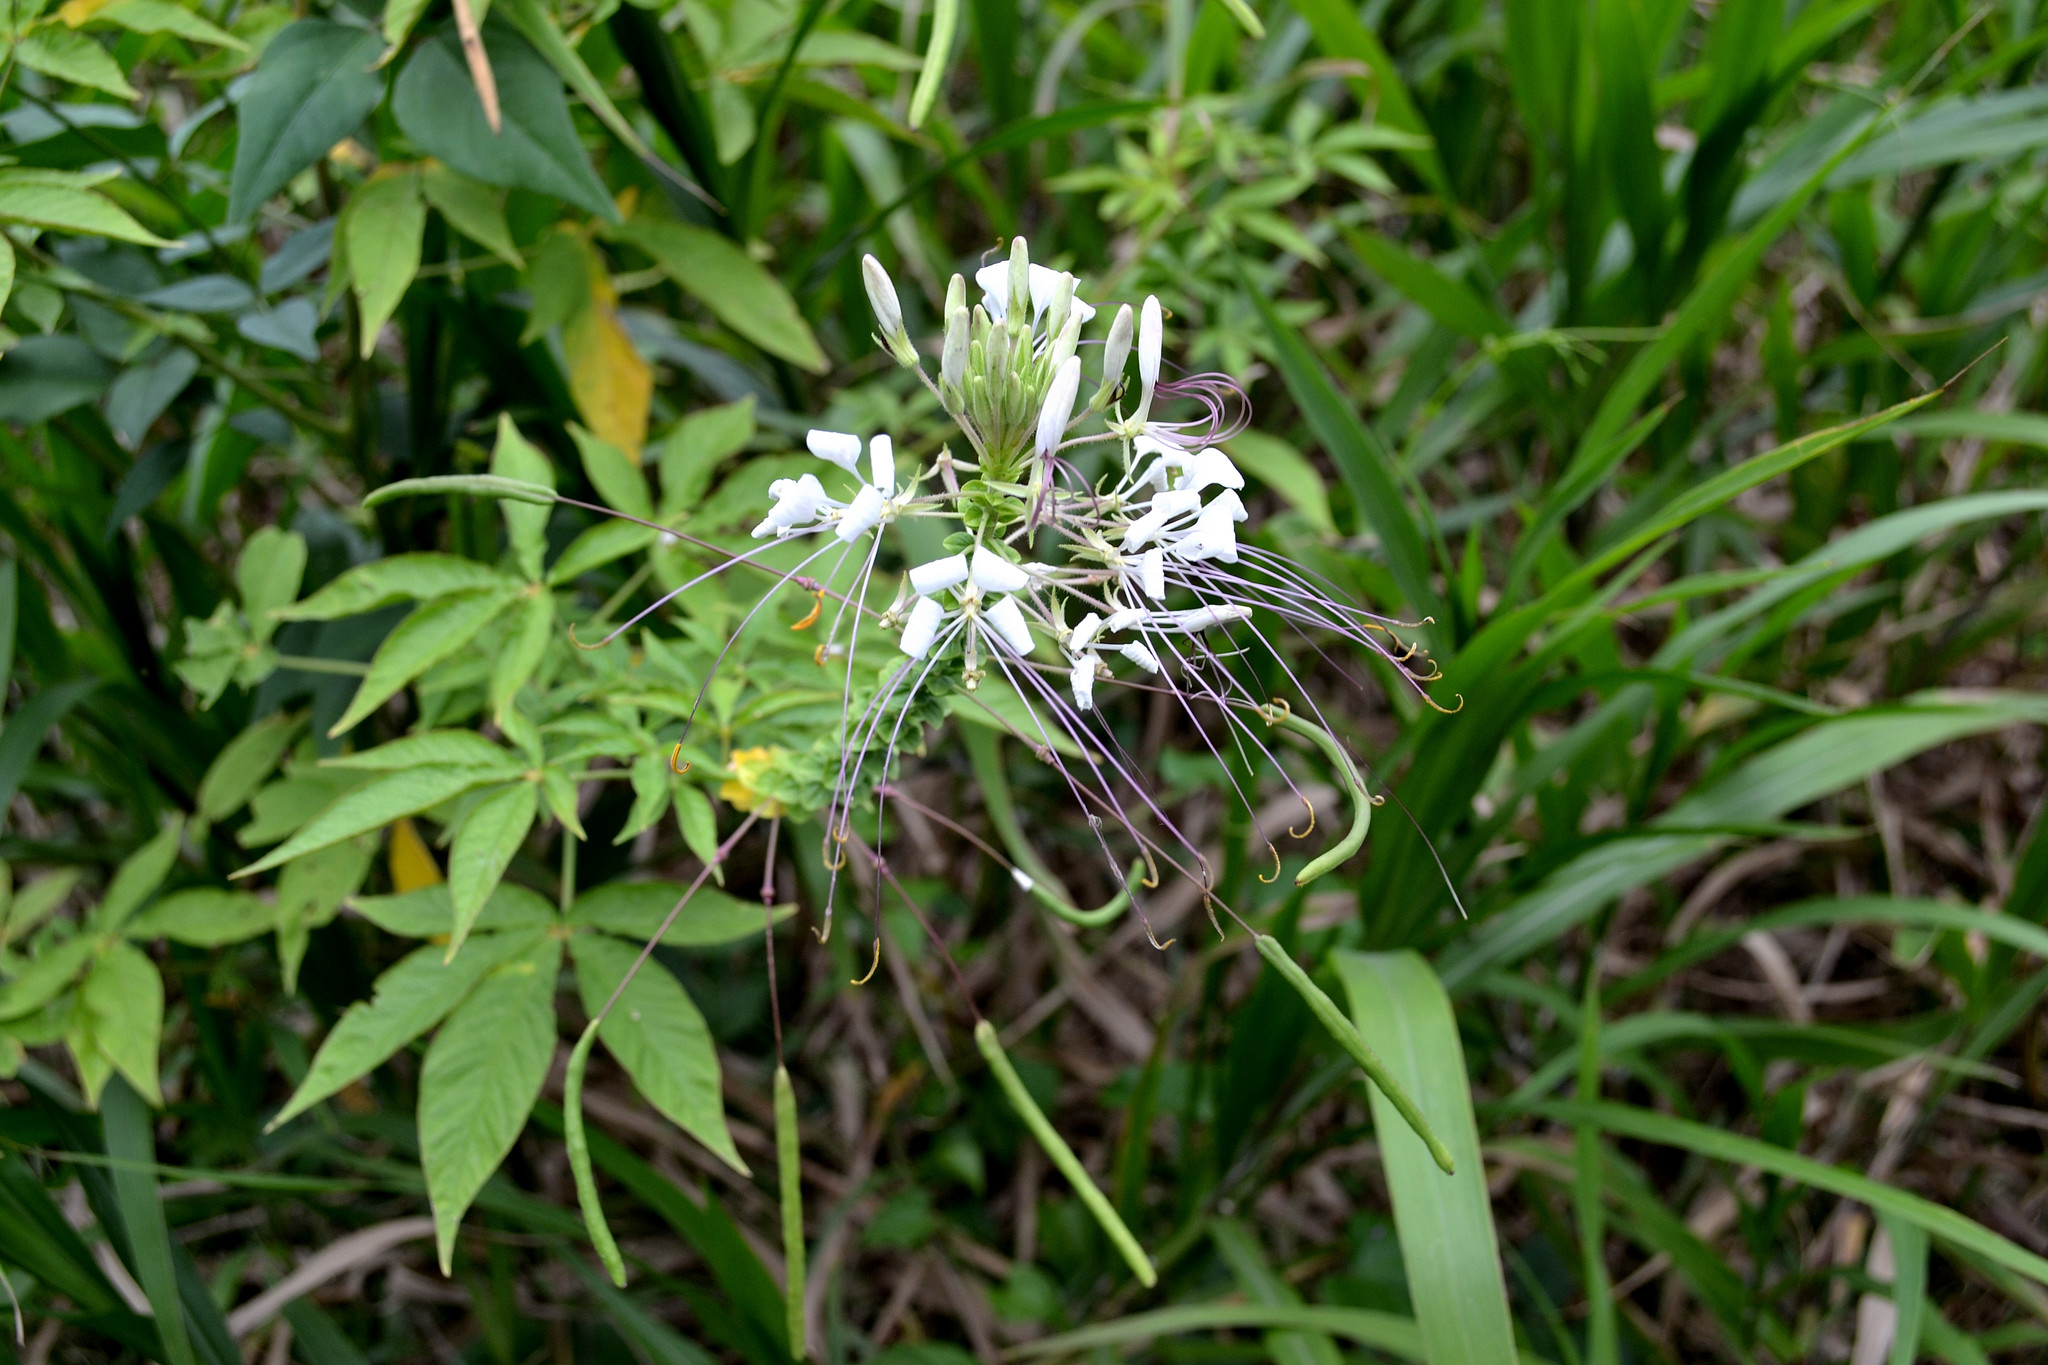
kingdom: Plantae
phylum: Tracheophyta
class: Magnoliopsida
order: Brassicales
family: Cleomaceae
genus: Gynandropsis
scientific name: Gynandropsis gynandra
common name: Spiderwisp
